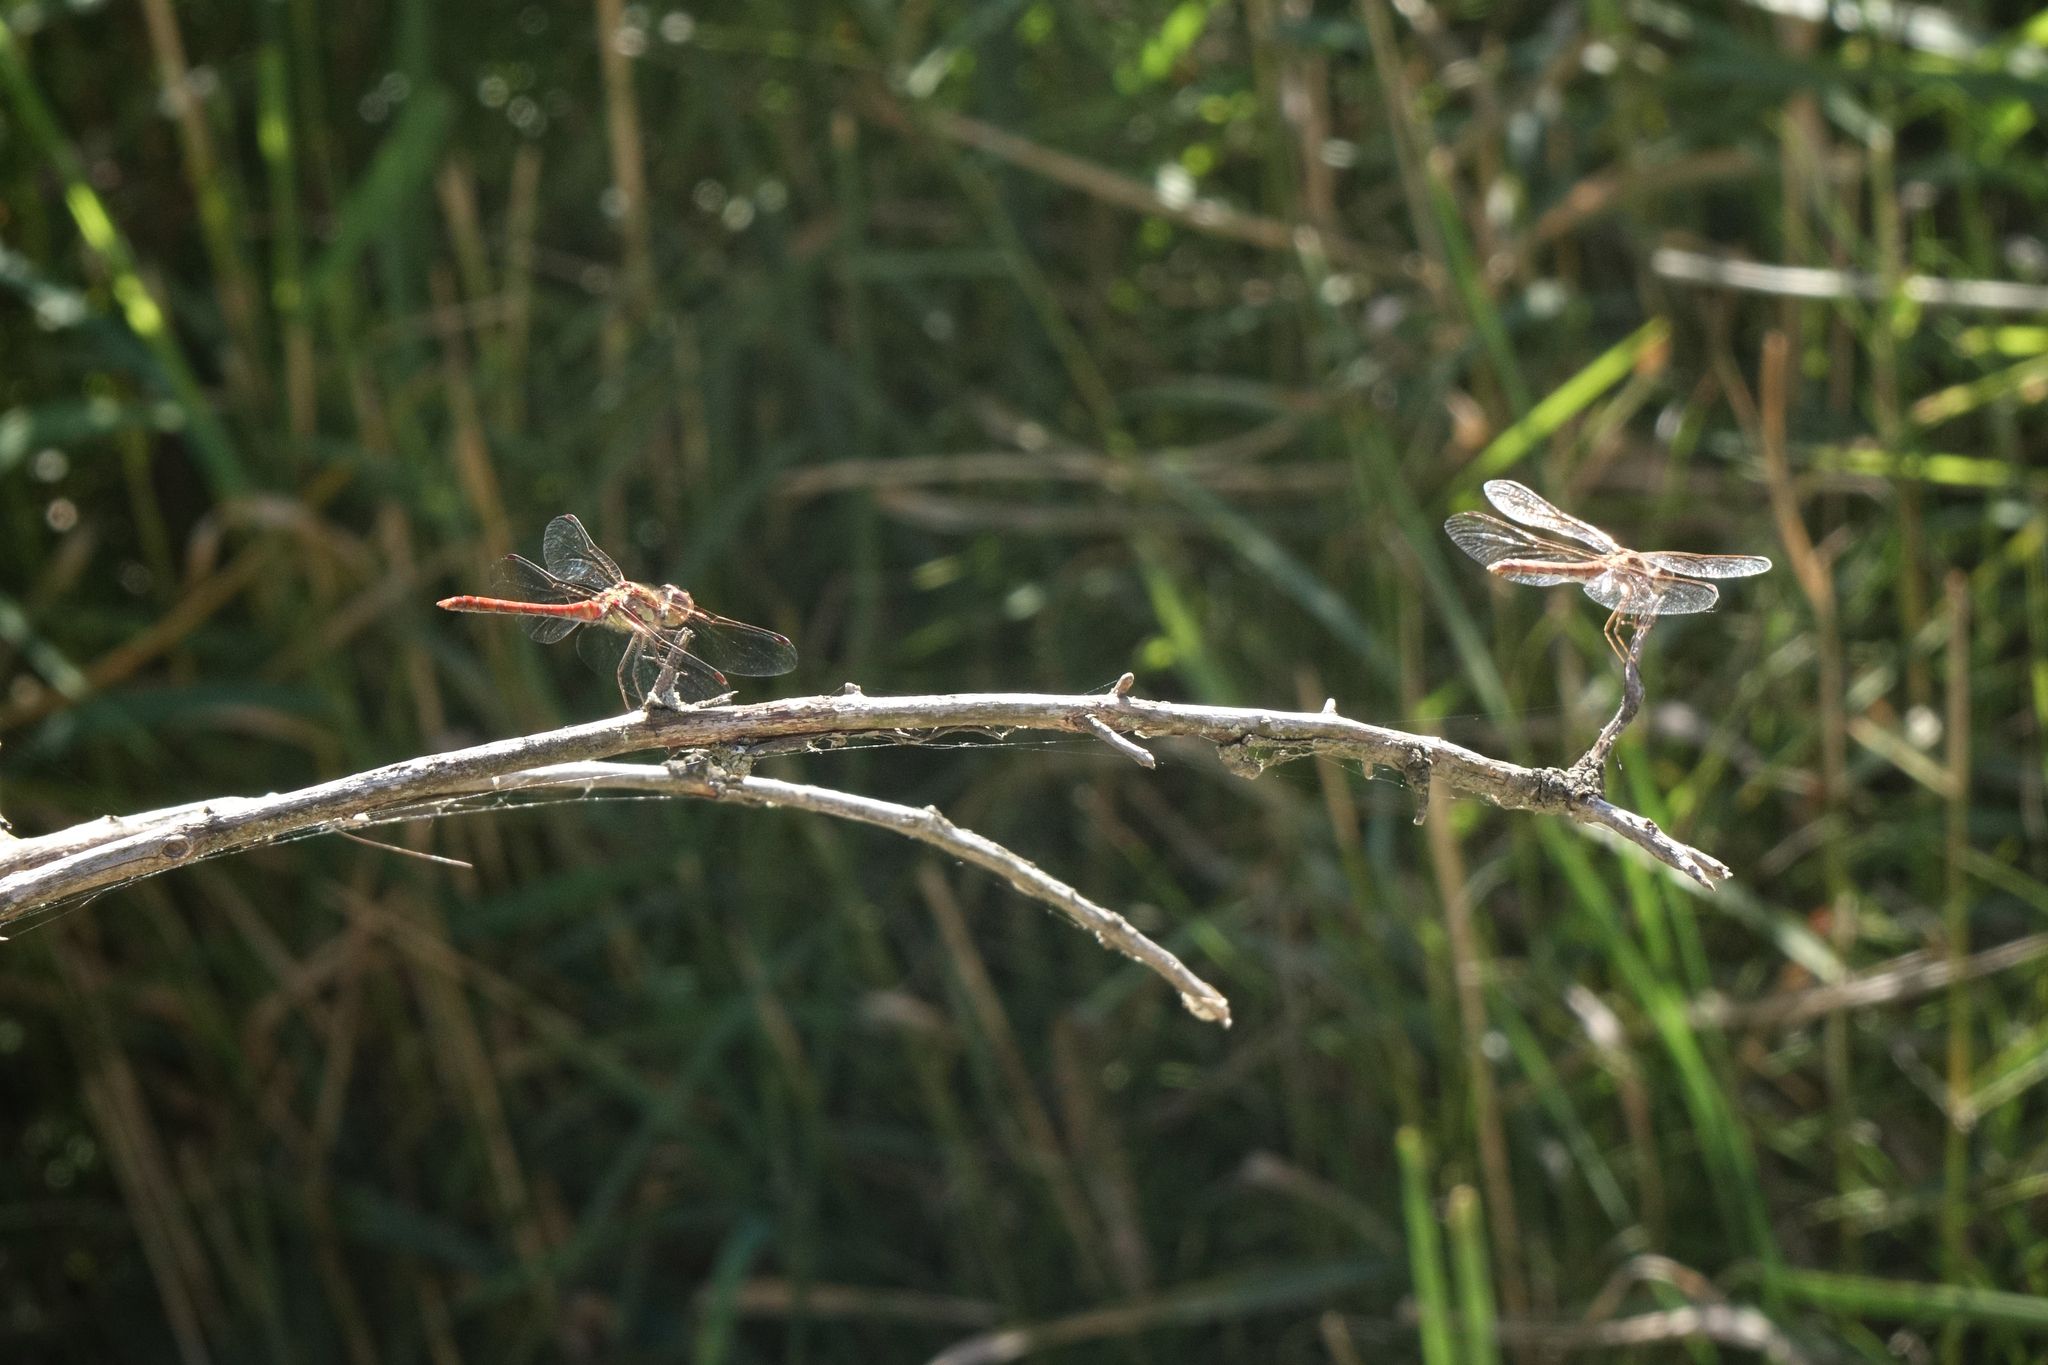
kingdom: Animalia
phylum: Arthropoda
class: Insecta
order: Odonata
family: Libellulidae
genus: Sympetrum
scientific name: Sympetrum vulgatum
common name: Vagrant darter
